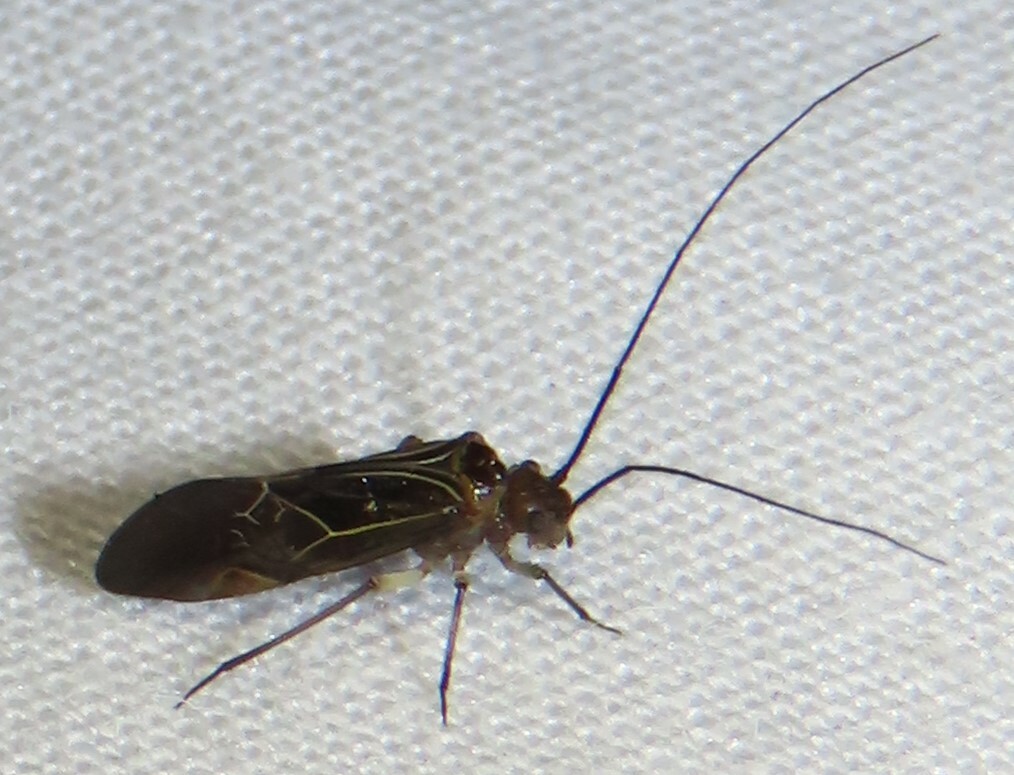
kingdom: Animalia
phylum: Arthropoda
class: Insecta
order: Psocodea
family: Psocidae
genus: Cerastipsocus
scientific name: Cerastipsocus venosus
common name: Tree cattle
